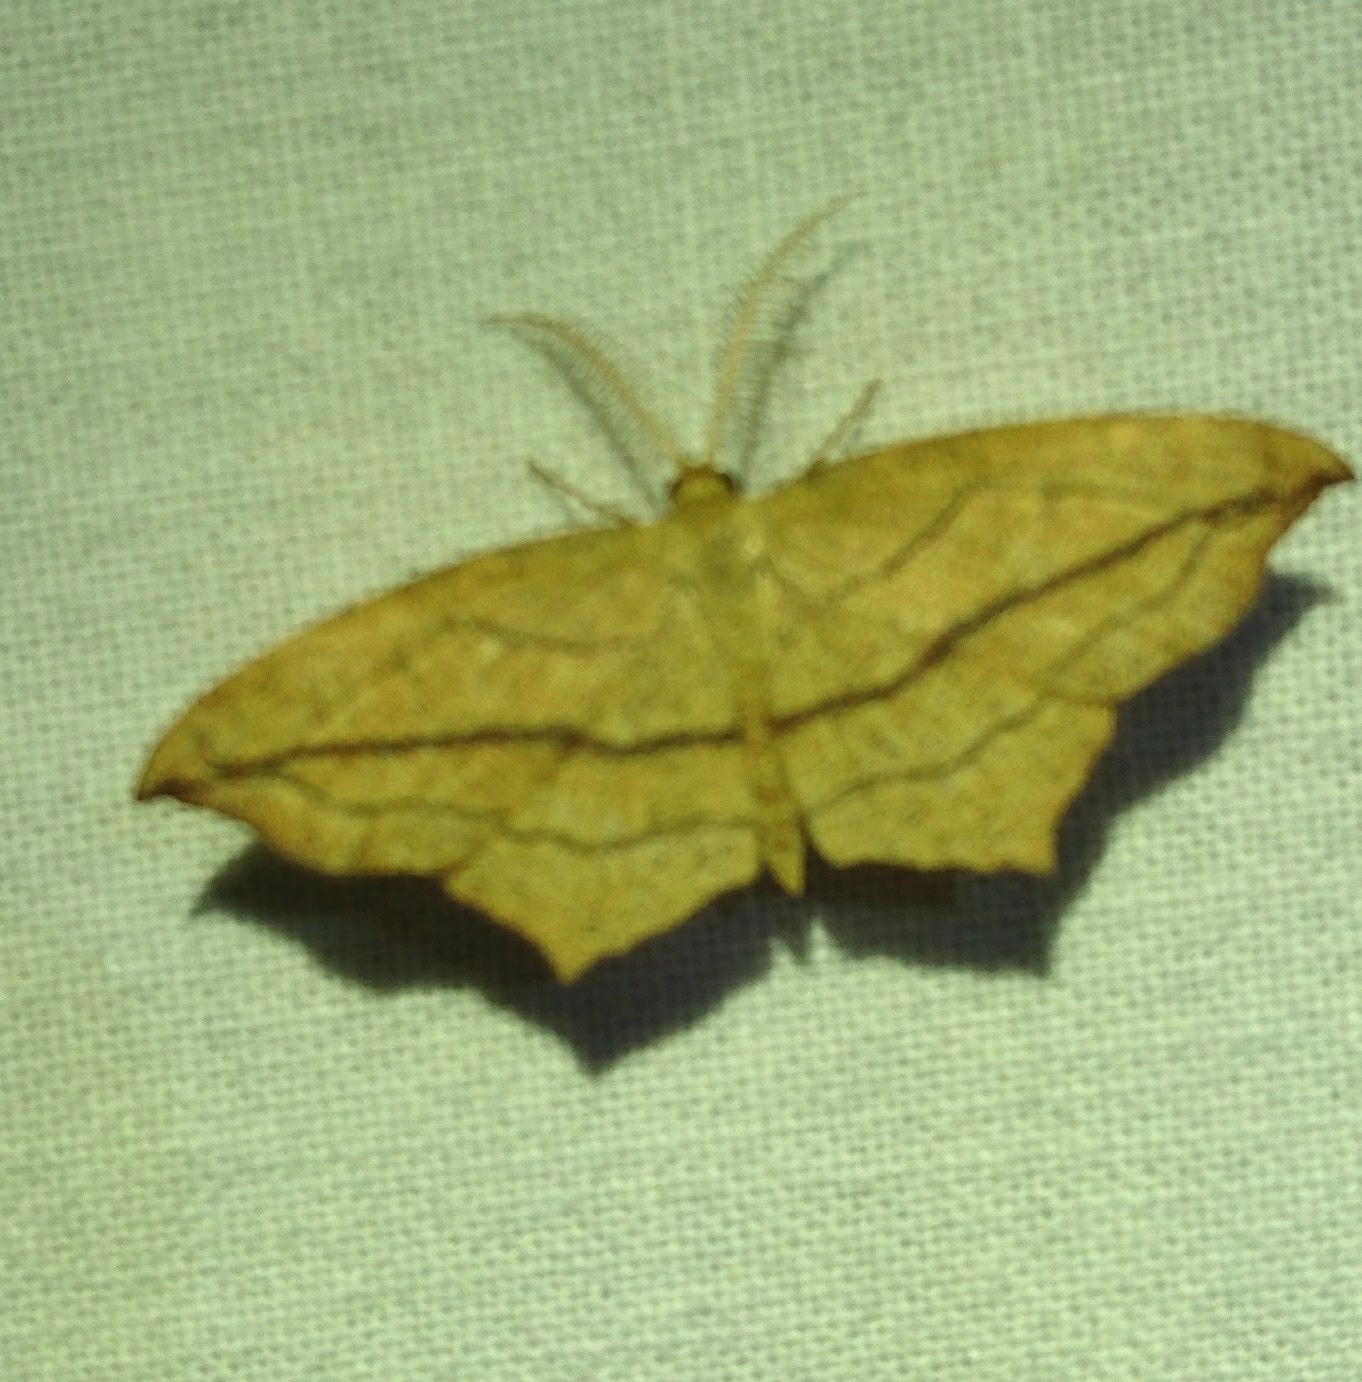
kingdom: Animalia
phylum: Arthropoda
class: Insecta
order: Lepidoptera
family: Geometridae
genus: Timandra
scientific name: Timandra amaturaria
